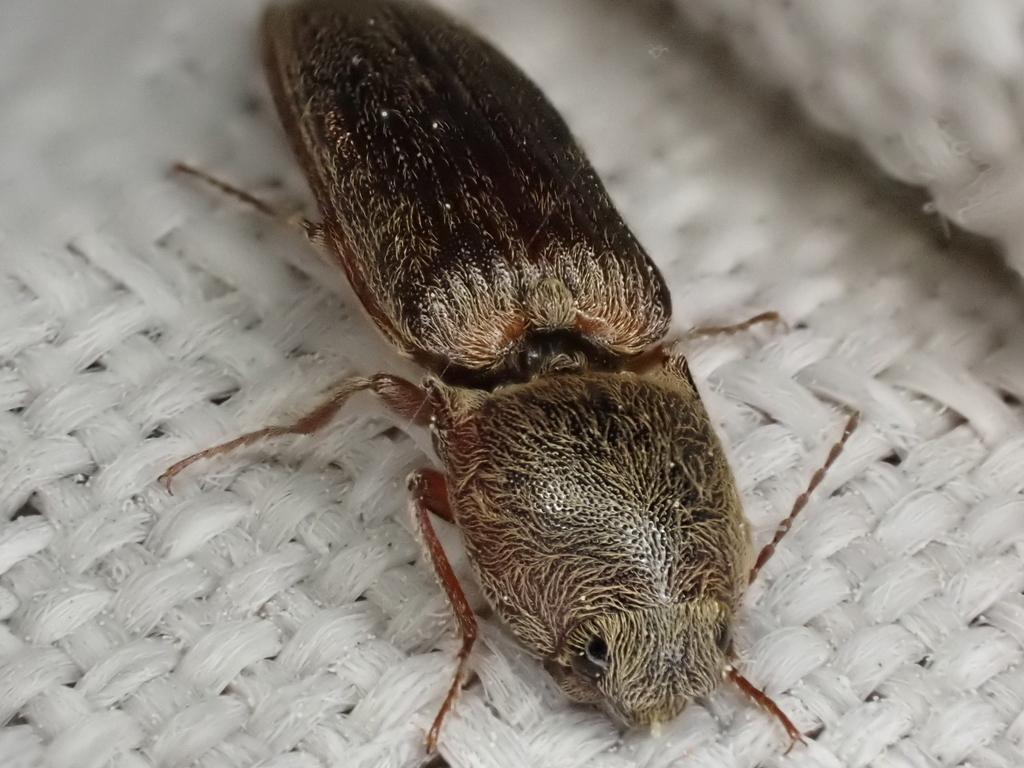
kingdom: Animalia
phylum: Arthropoda
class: Insecta
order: Coleoptera
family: Elateridae
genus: Gambrinus
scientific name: Gambrinus griseus
